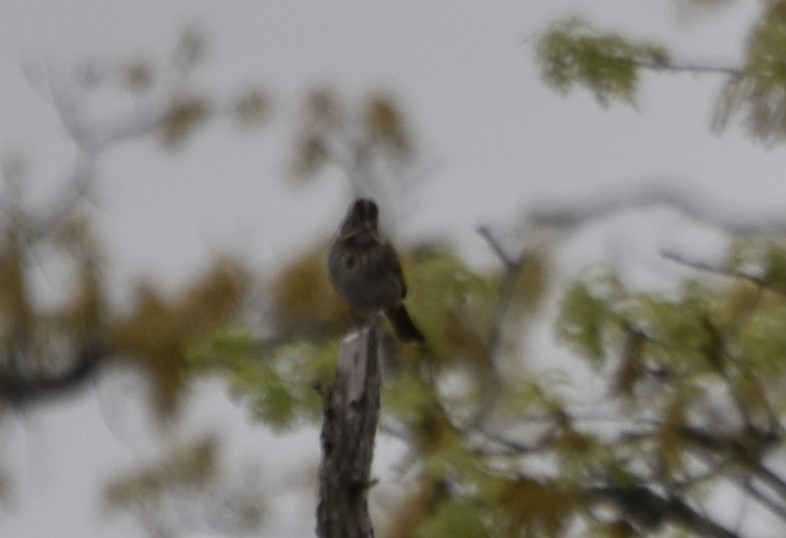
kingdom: Animalia
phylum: Chordata
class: Aves
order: Passeriformes
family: Passerellidae
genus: Melospiza
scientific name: Melospiza melodia
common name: Song sparrow
